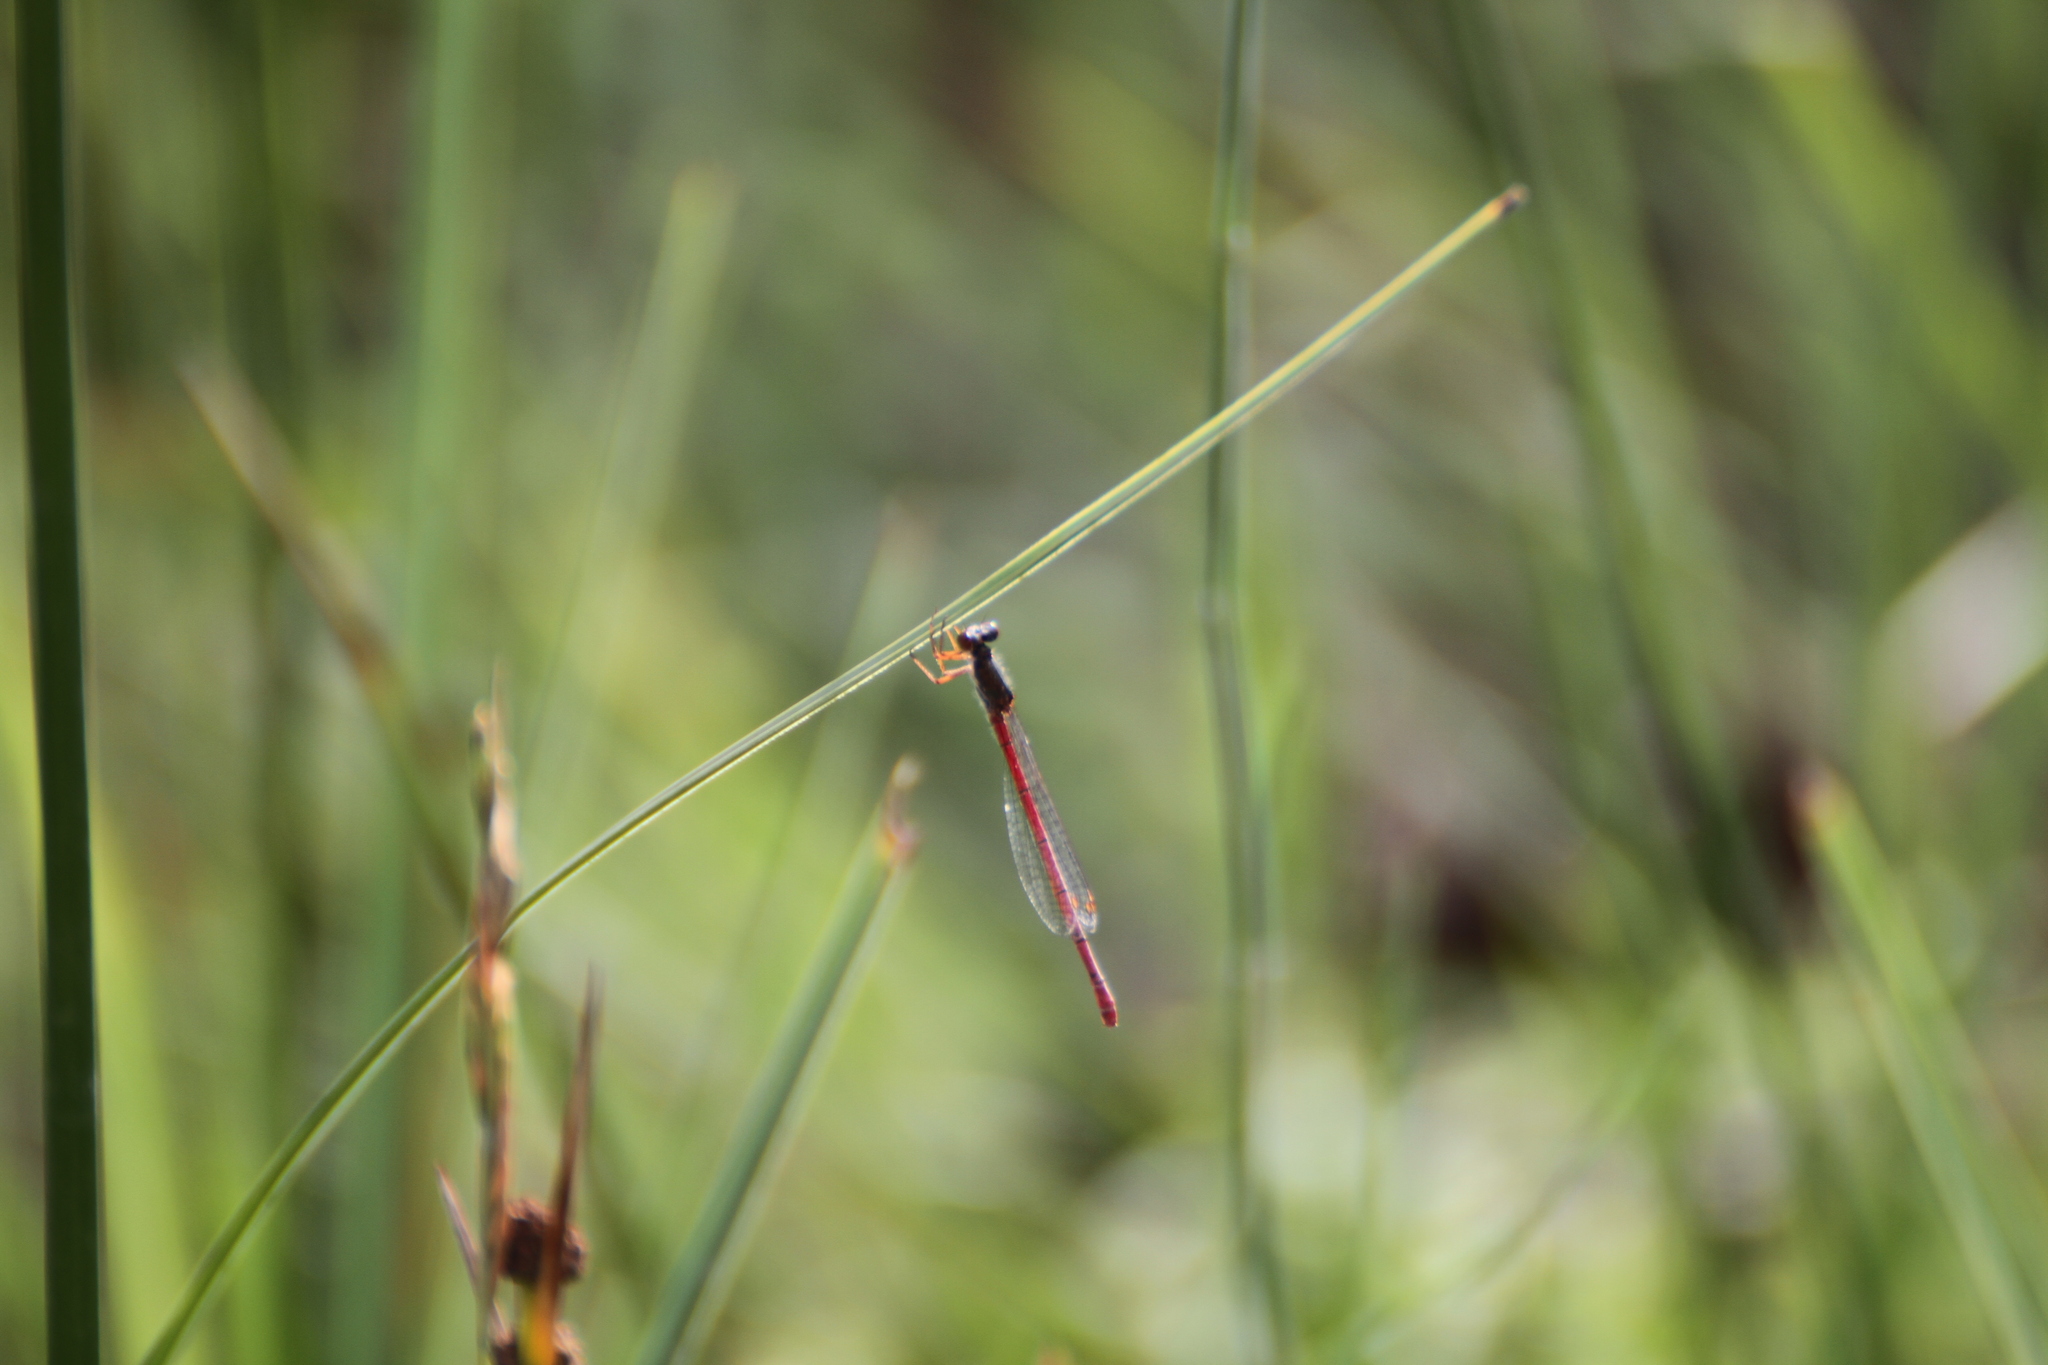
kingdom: Animalia
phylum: Arthropoda
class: Insecta
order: Odonata
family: Coenagrionidae
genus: Ceriagrion
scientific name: Ceriagrion tenellum
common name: Small red damselfly
